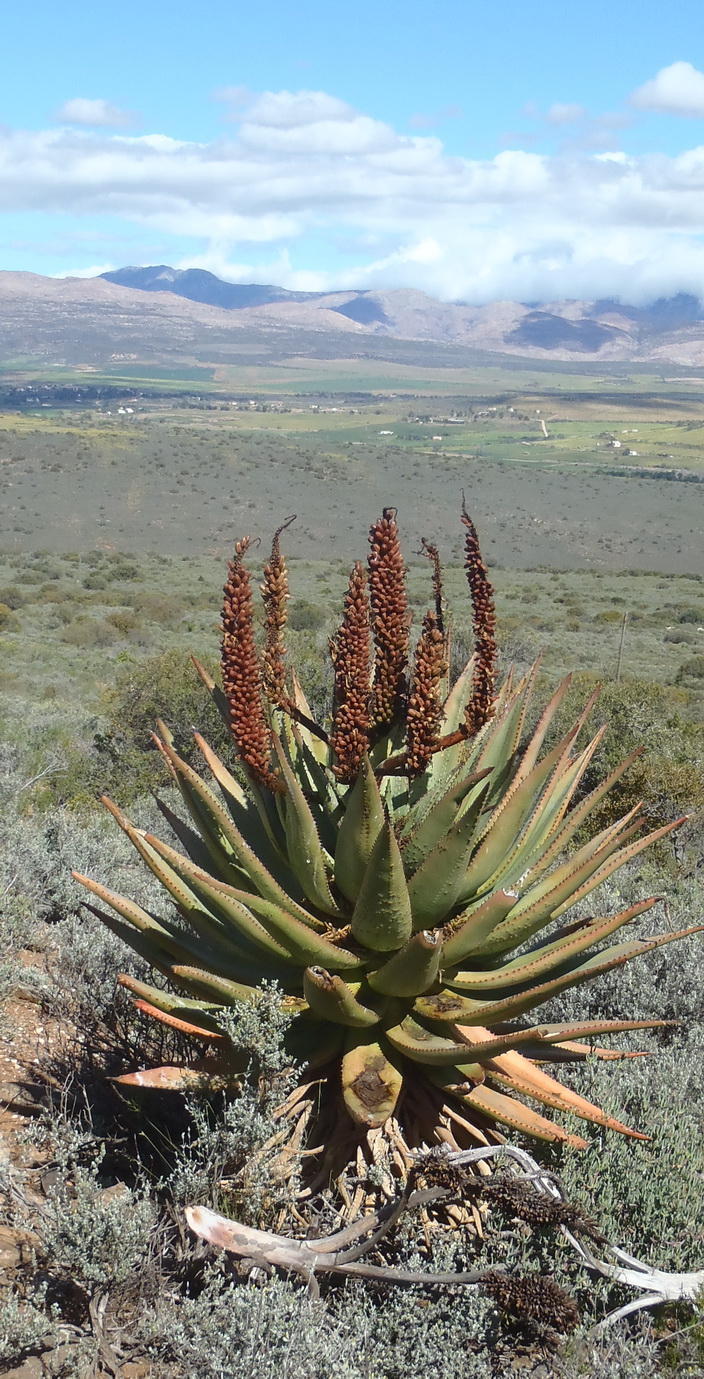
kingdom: Plantae
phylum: Tracheophyta
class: Liliopsida
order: Asparagales
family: Asphodelaceae
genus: Aloe
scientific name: Aloe ferox
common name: Bitter aloe
